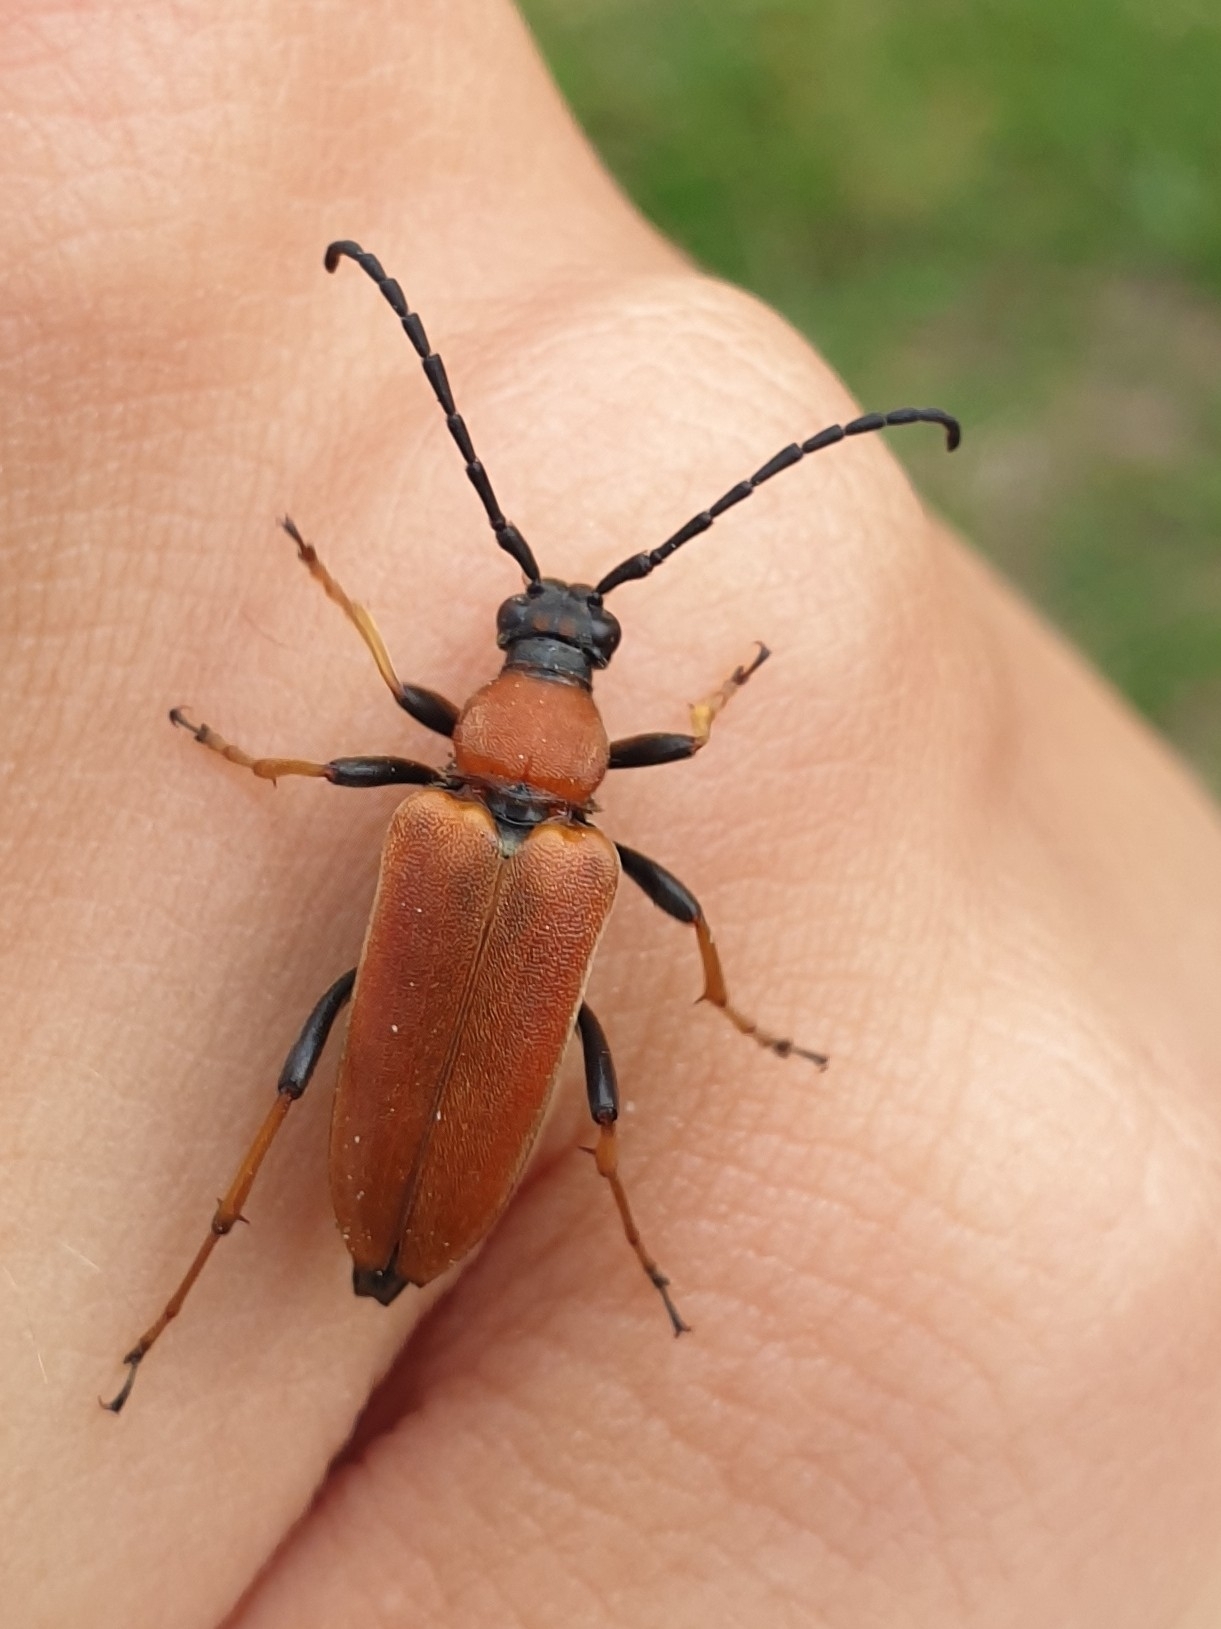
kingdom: Animalia
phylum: Arthropoda
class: Insecta
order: Coleoptera
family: Cerambycidae
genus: Stictoleptura
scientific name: Stictoleptura rubra
